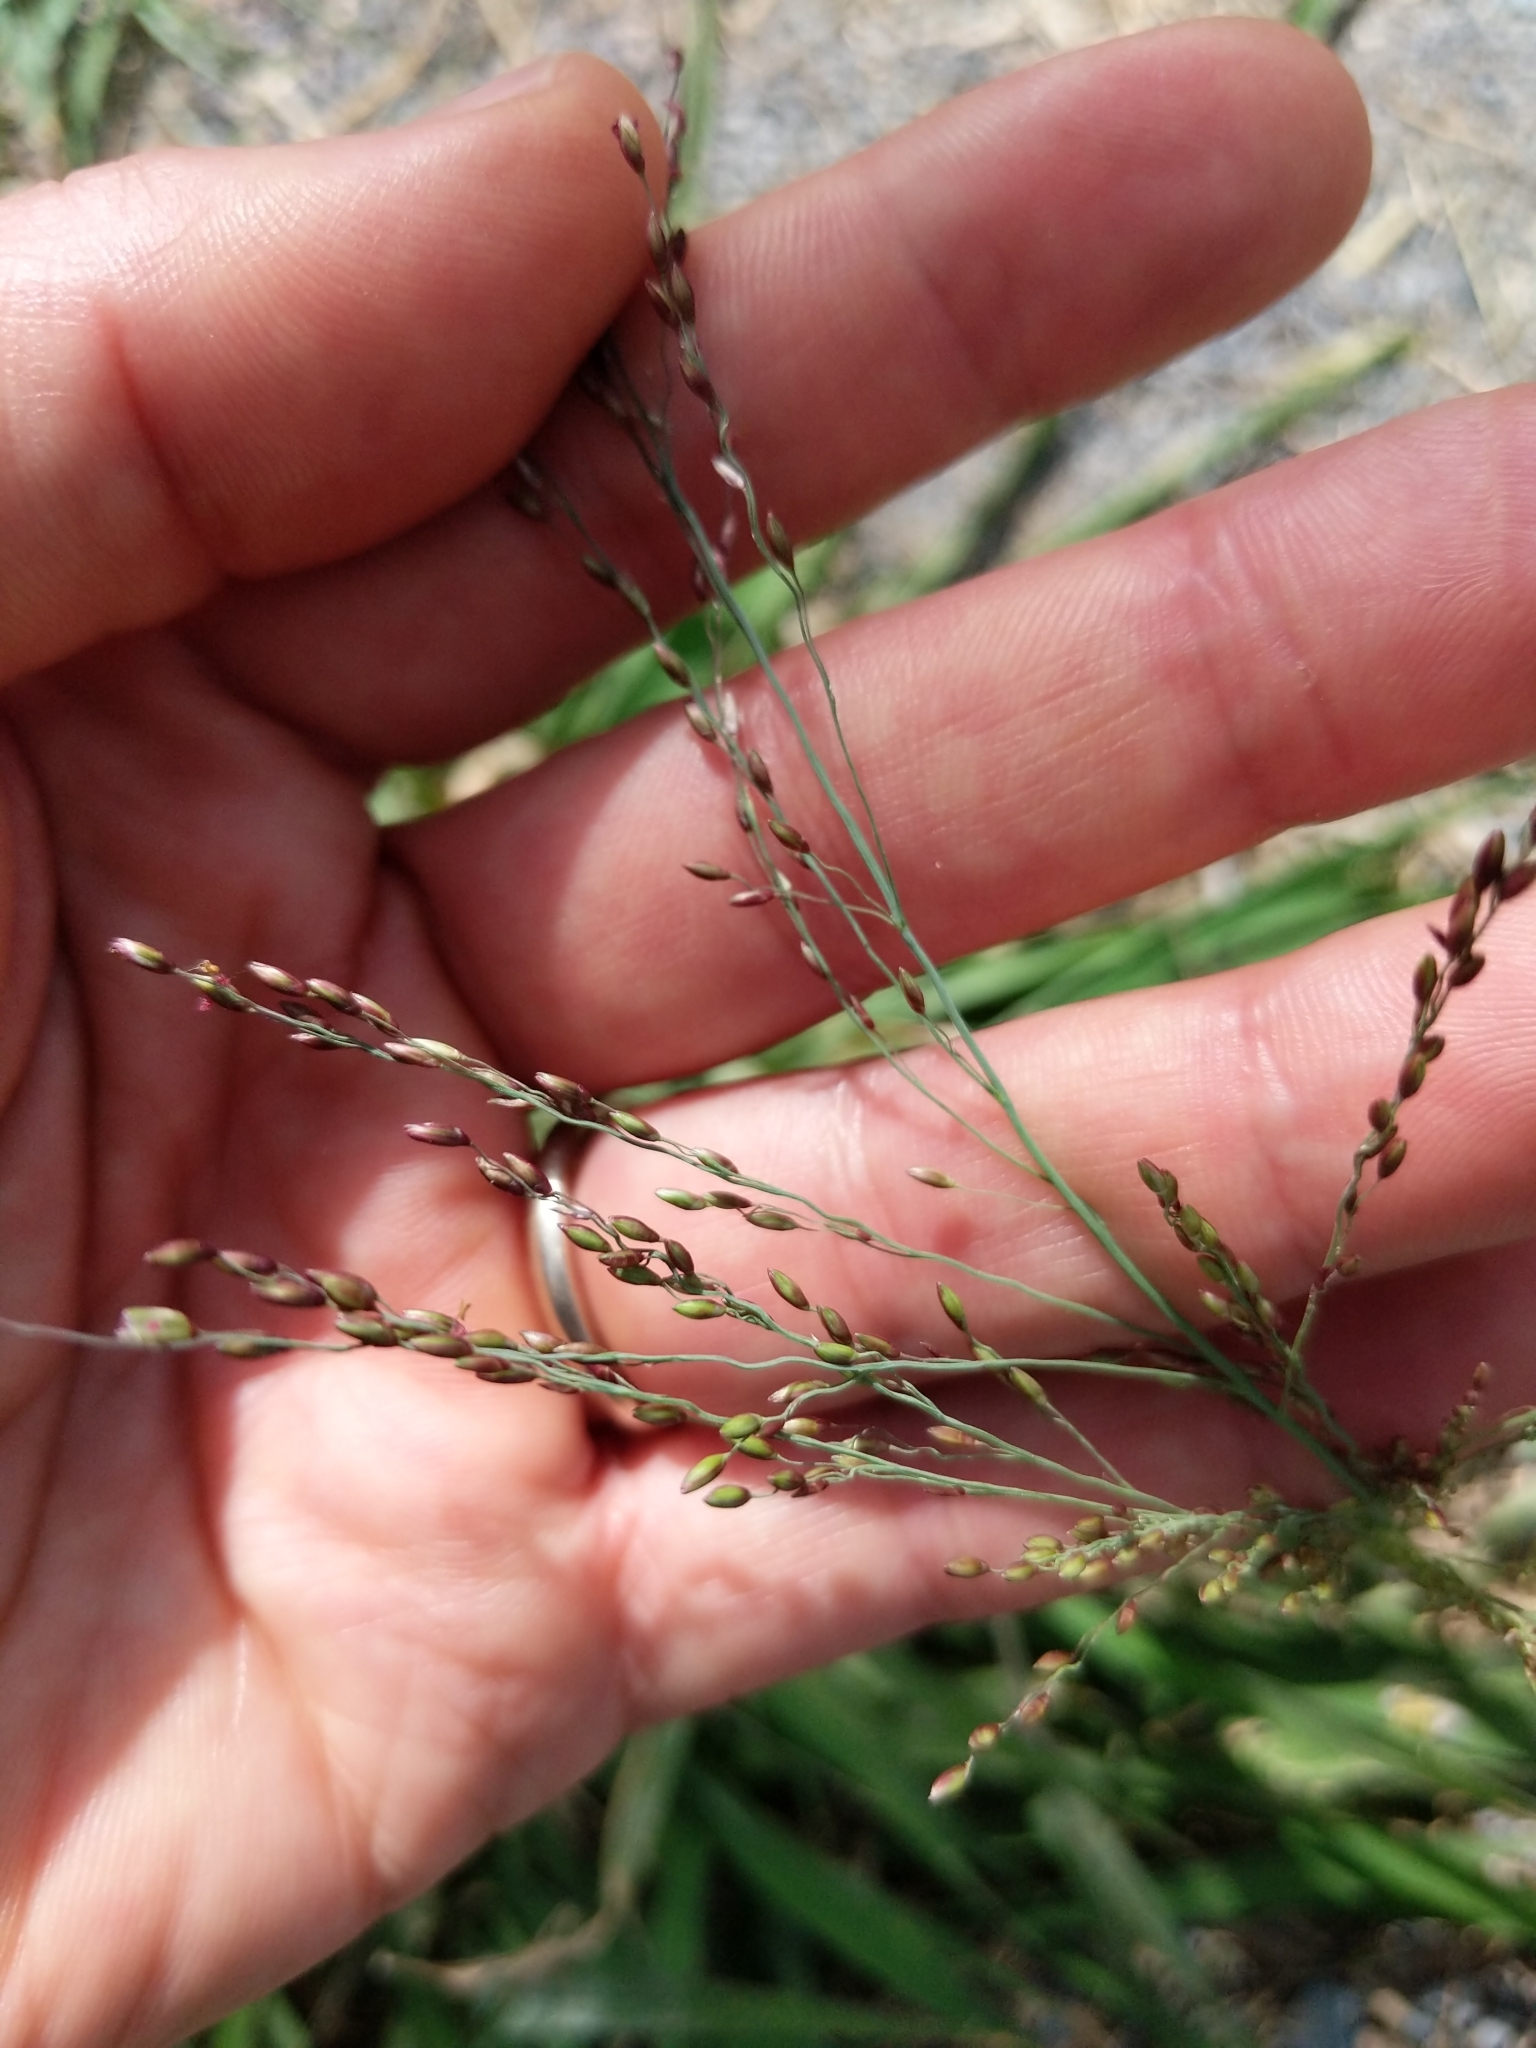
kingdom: Plantae
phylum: Tracheophyta
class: Liliopsida
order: Poales
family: Poaceae
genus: Megathyrsus
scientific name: Megathyrsus maximus
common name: Guineagrass
